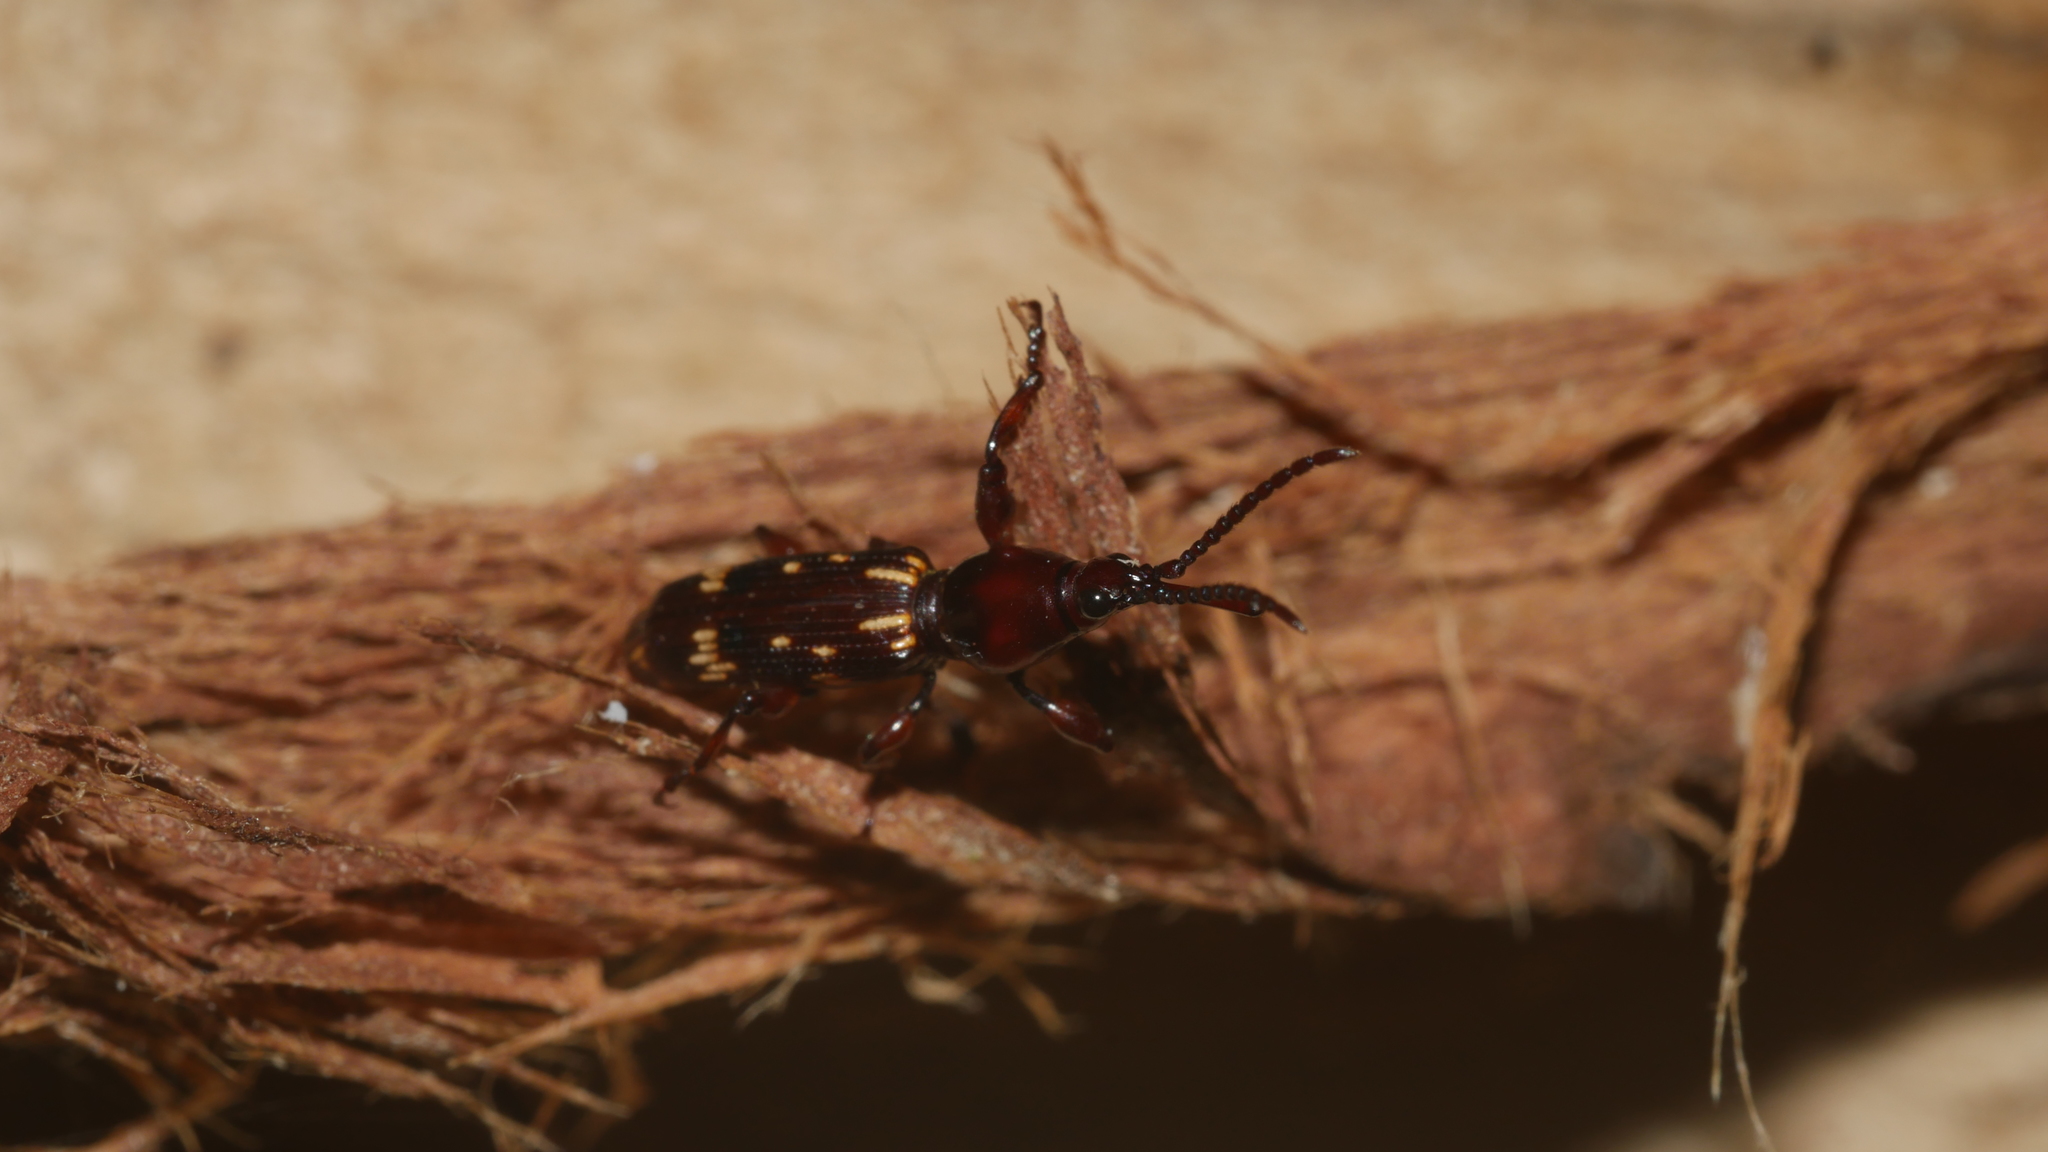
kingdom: Animalia
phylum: Arthropoda
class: Insecta
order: Coleoptera
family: Brentidae
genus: Arrenodes
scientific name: Arrenodes minutus
